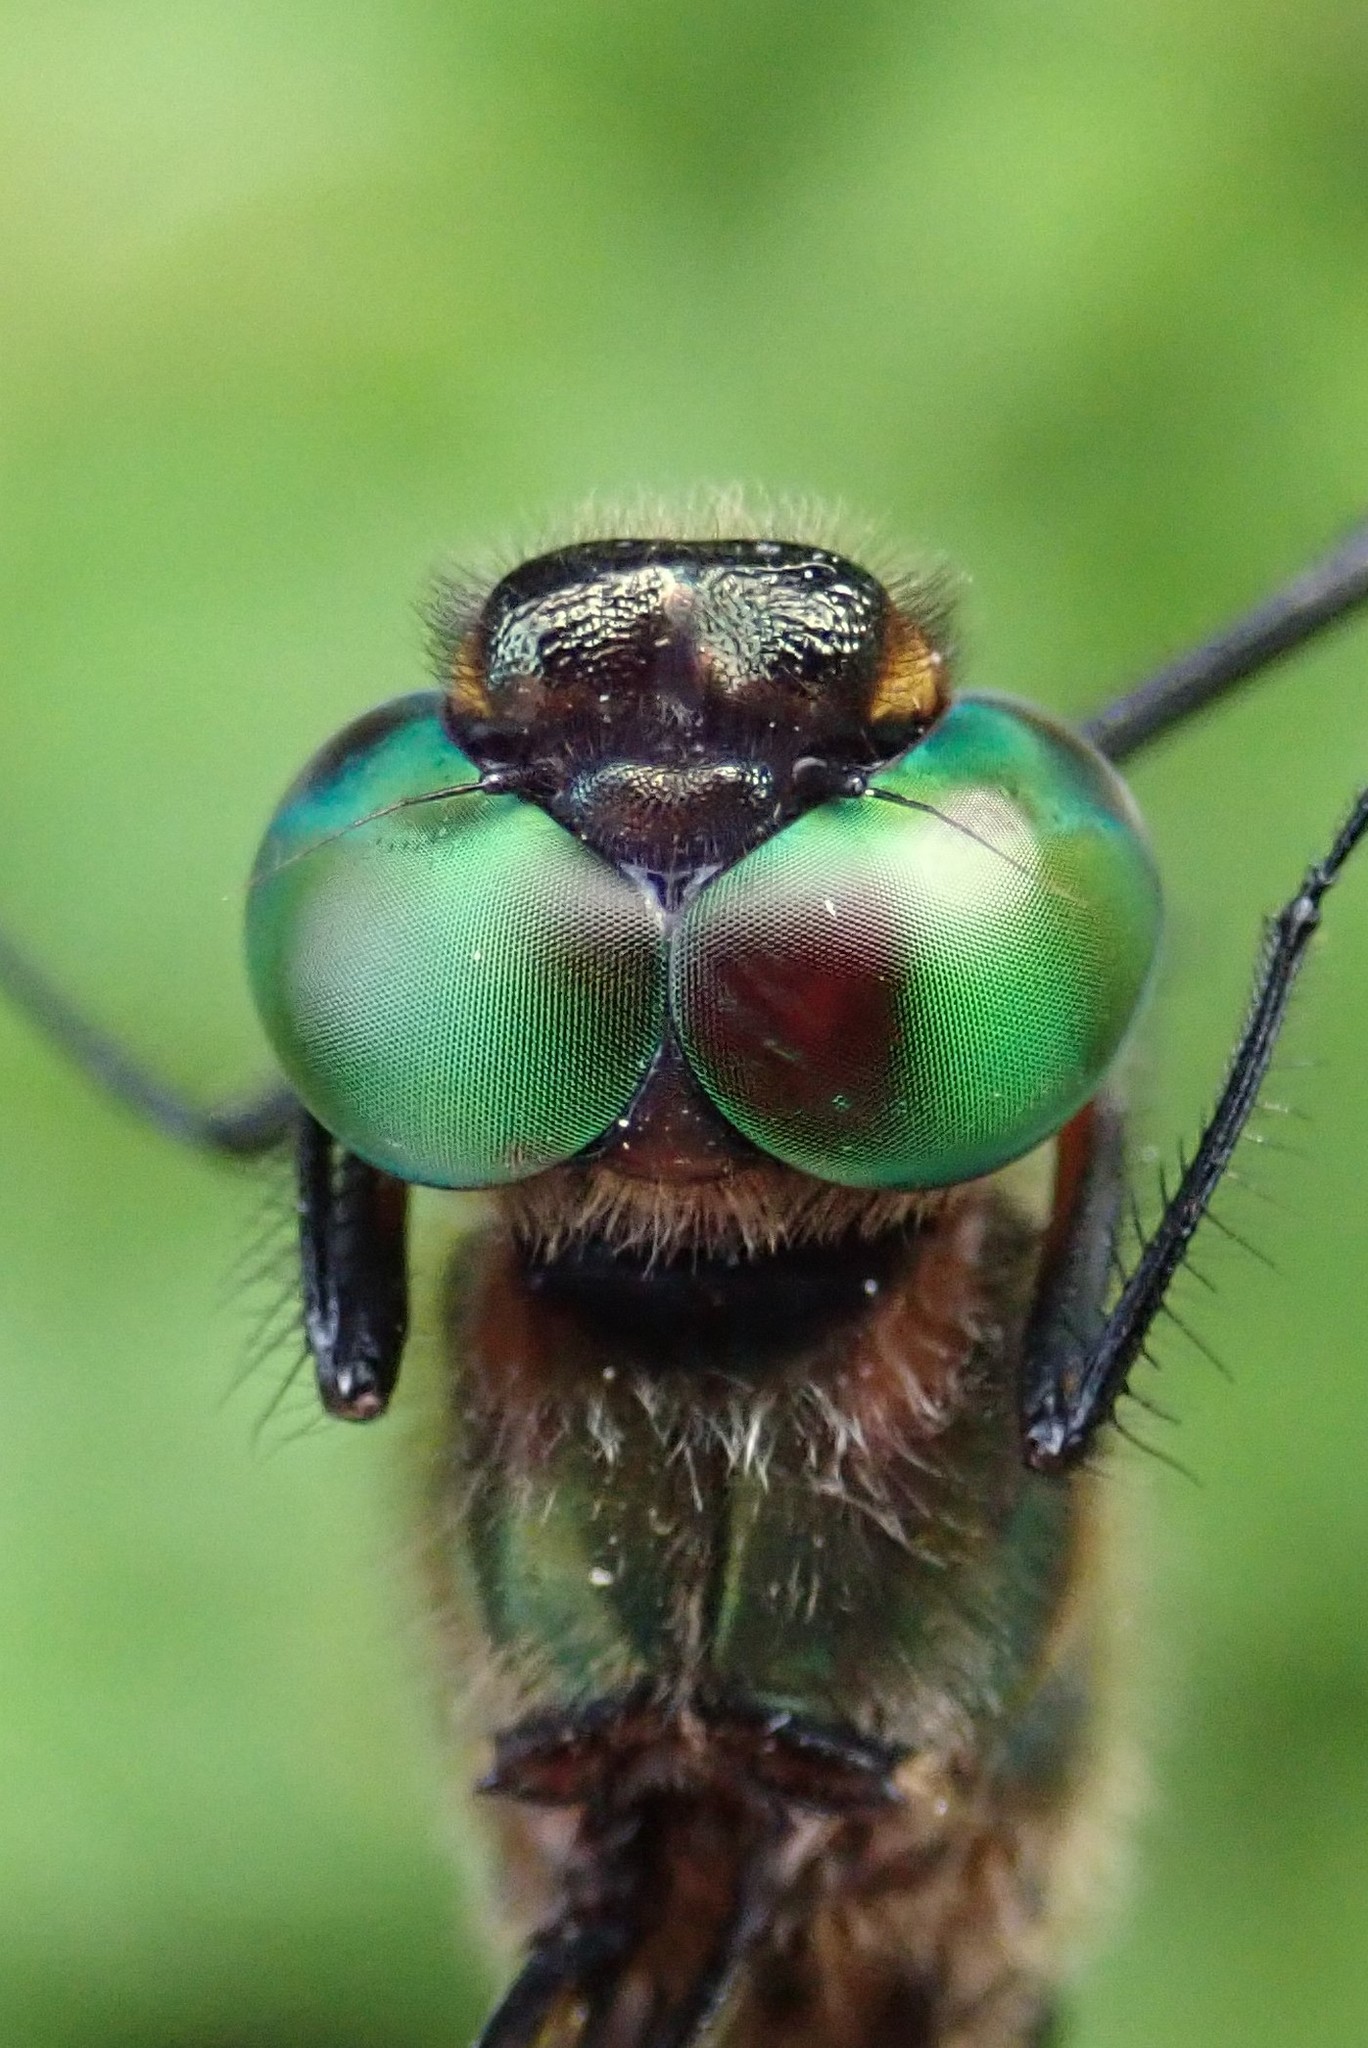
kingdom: Animalia
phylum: Arthropoda
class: Insecta
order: Odonata
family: Corduliidae
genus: Somatochlora
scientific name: Somatochlora williamsoni
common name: Williamson's emerald
